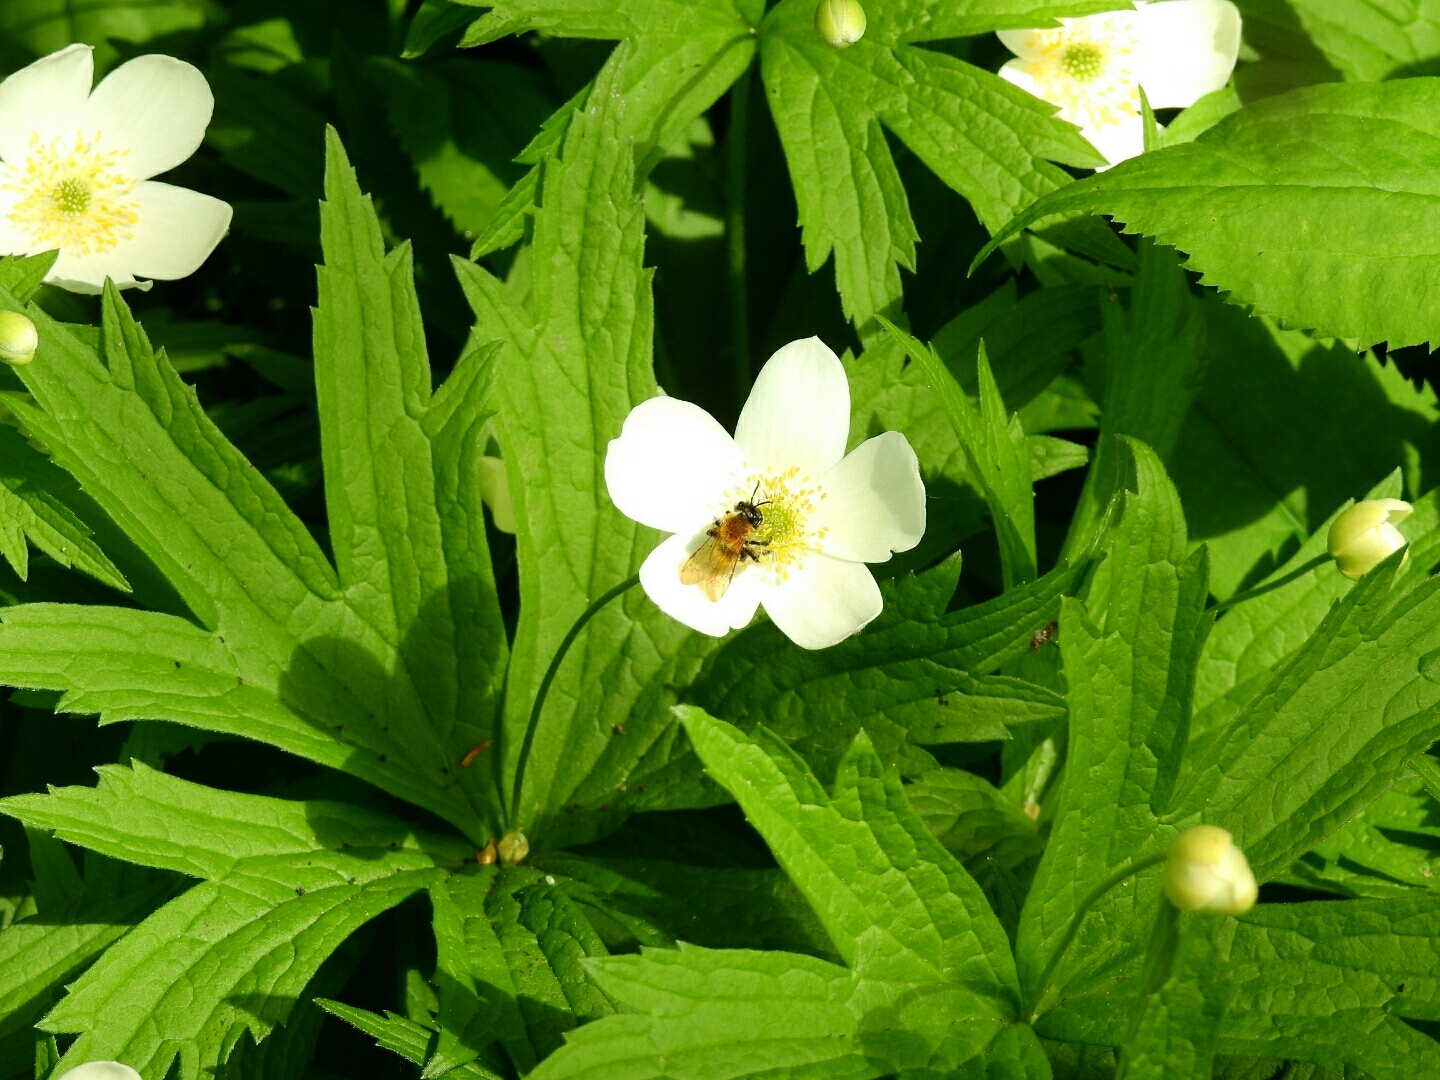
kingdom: Animalia
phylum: Arthropoda
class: Insecta
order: Hymenoptera
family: Andrenidae
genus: Andrena
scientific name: Andrena milwaukeensis
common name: Milwaukee mining bee
